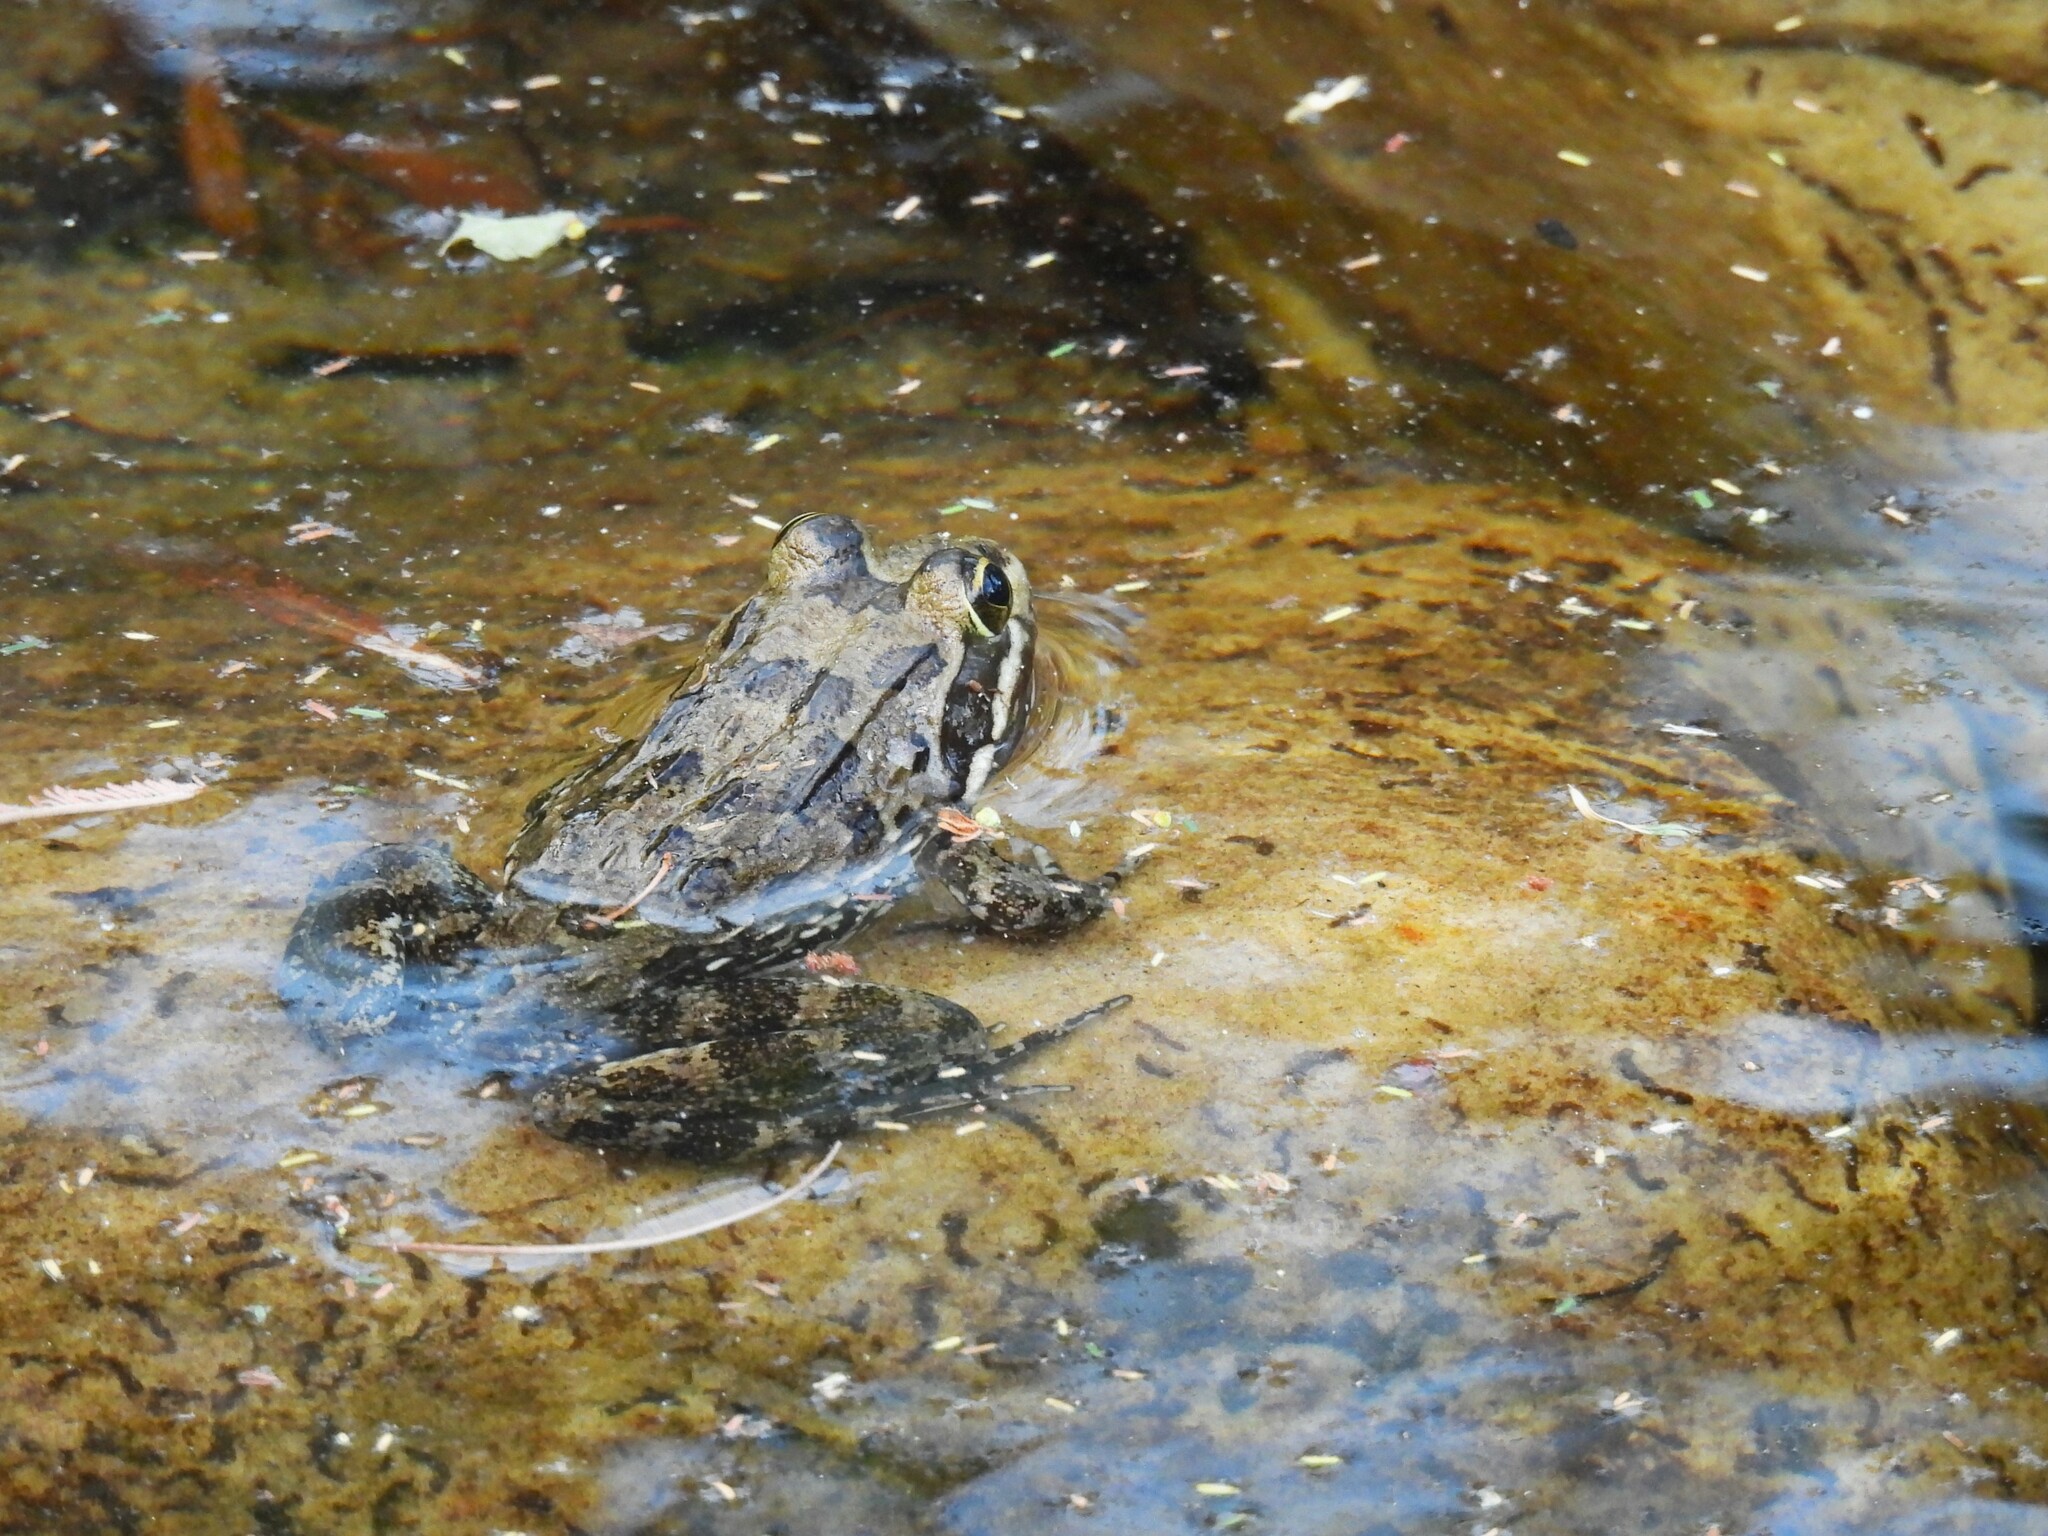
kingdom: Animalia
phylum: Chordata
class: Amphibia
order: Anura
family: Pyxicephalidae
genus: Amietia
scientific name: Amietia fuscigula
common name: Cape rana
